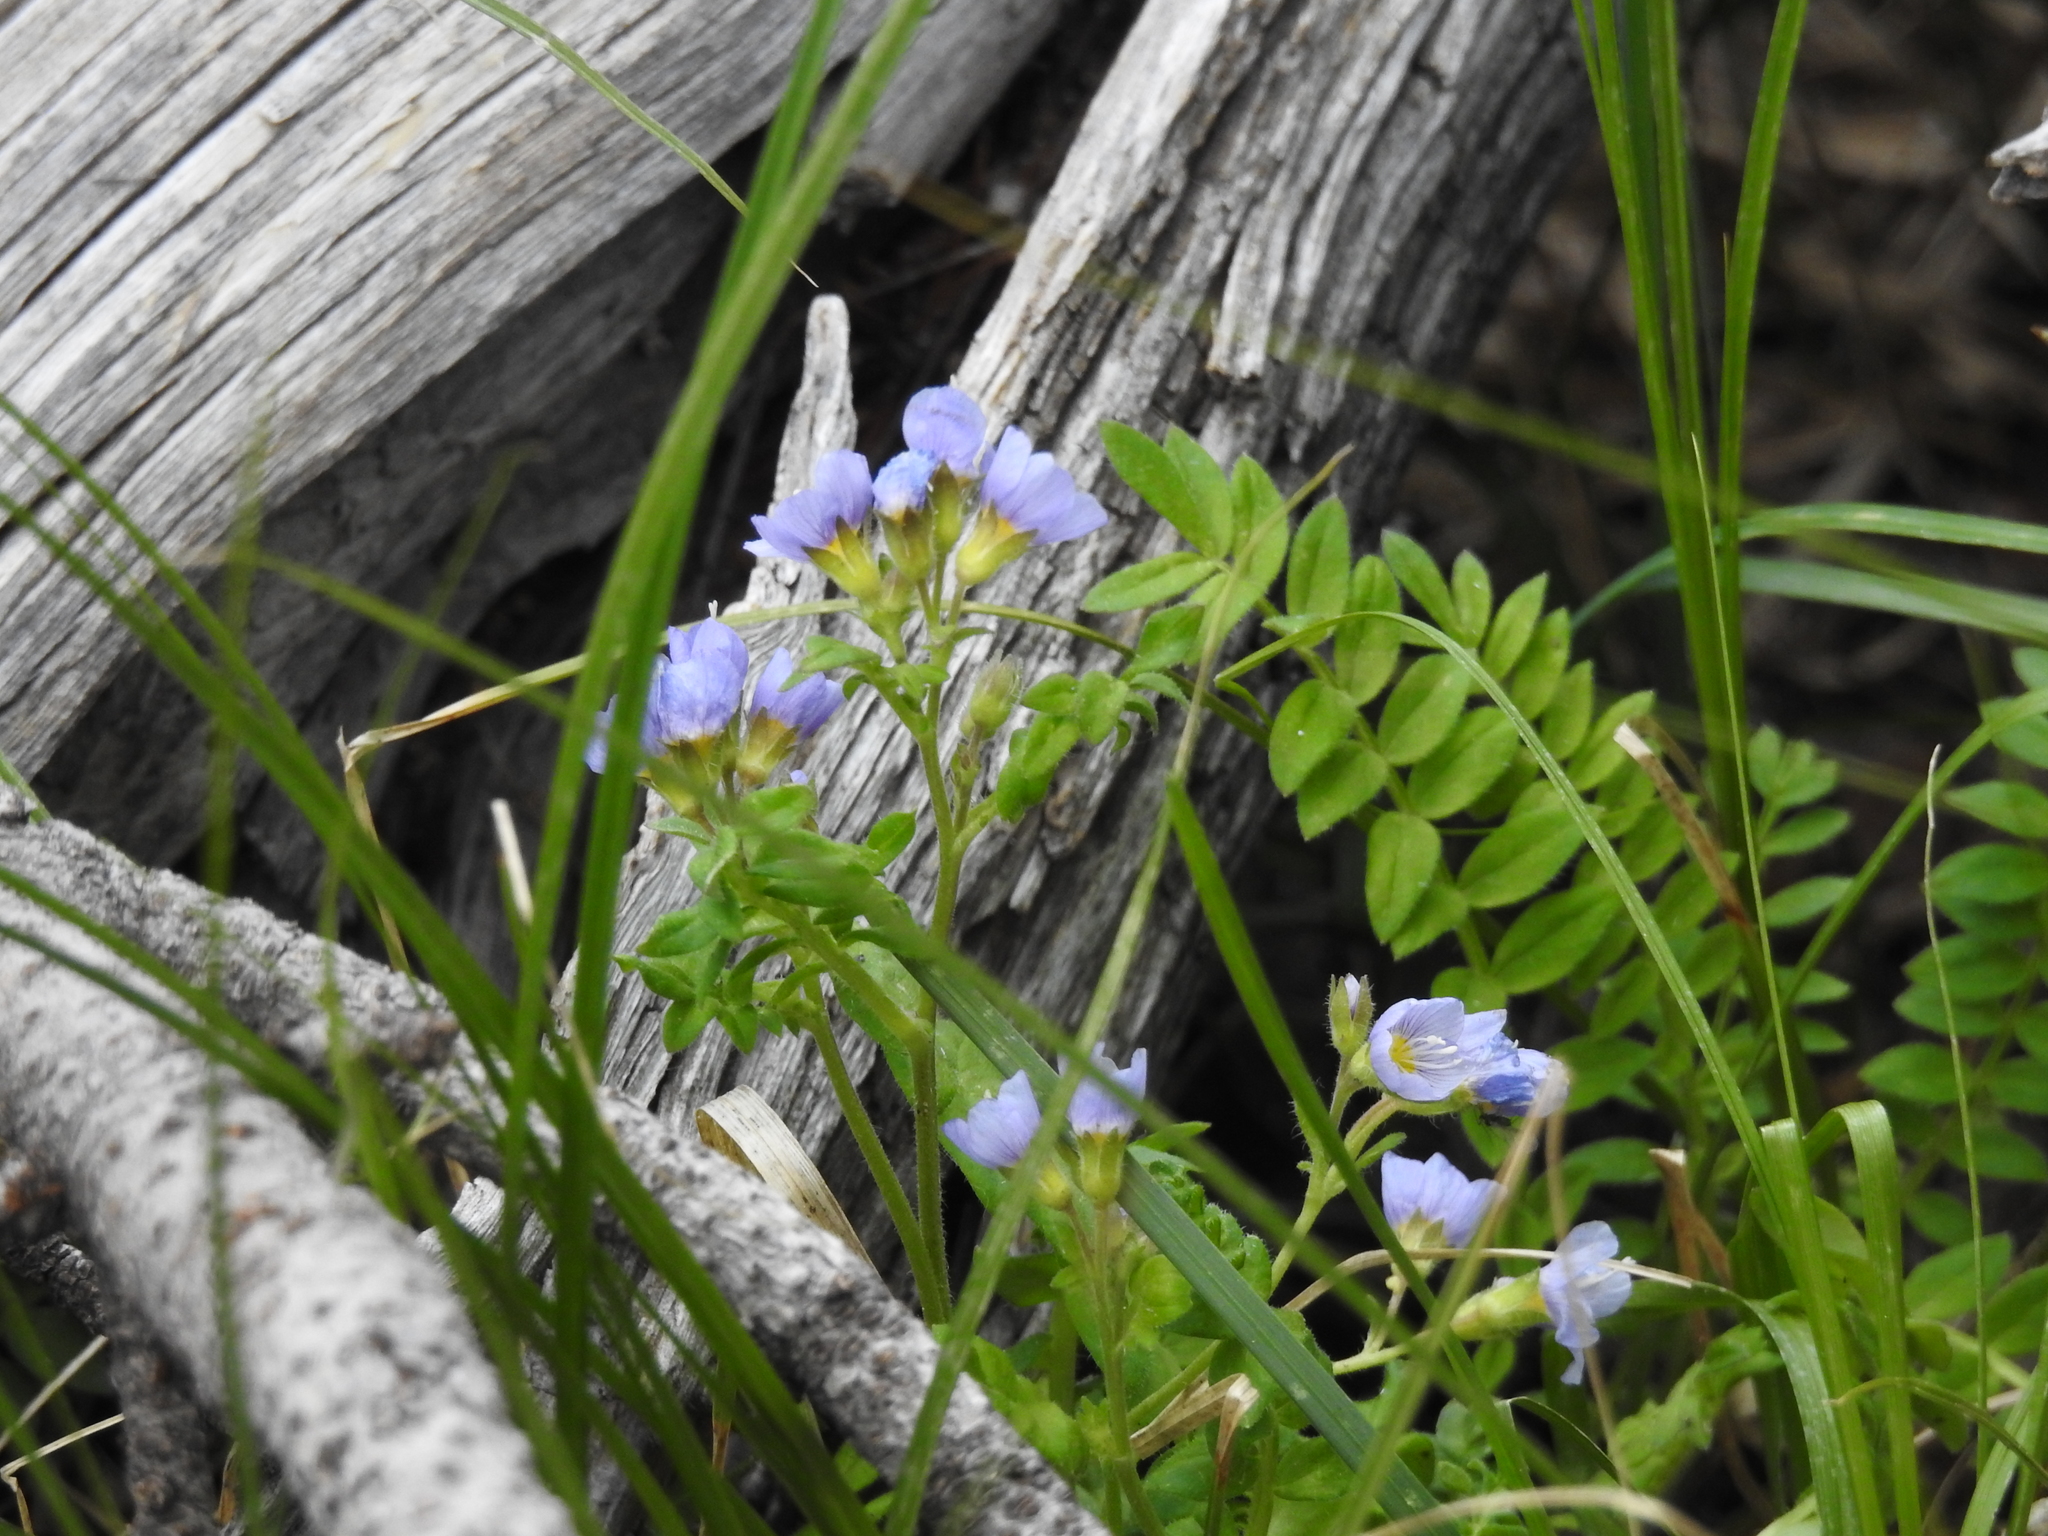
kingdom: Plantae
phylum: Tracheophyta
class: Magnoliopsida
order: Ericales
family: Polemoniaceae
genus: Polemonium
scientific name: Polemonium pulcherrimum
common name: Short jacob's-ladder
